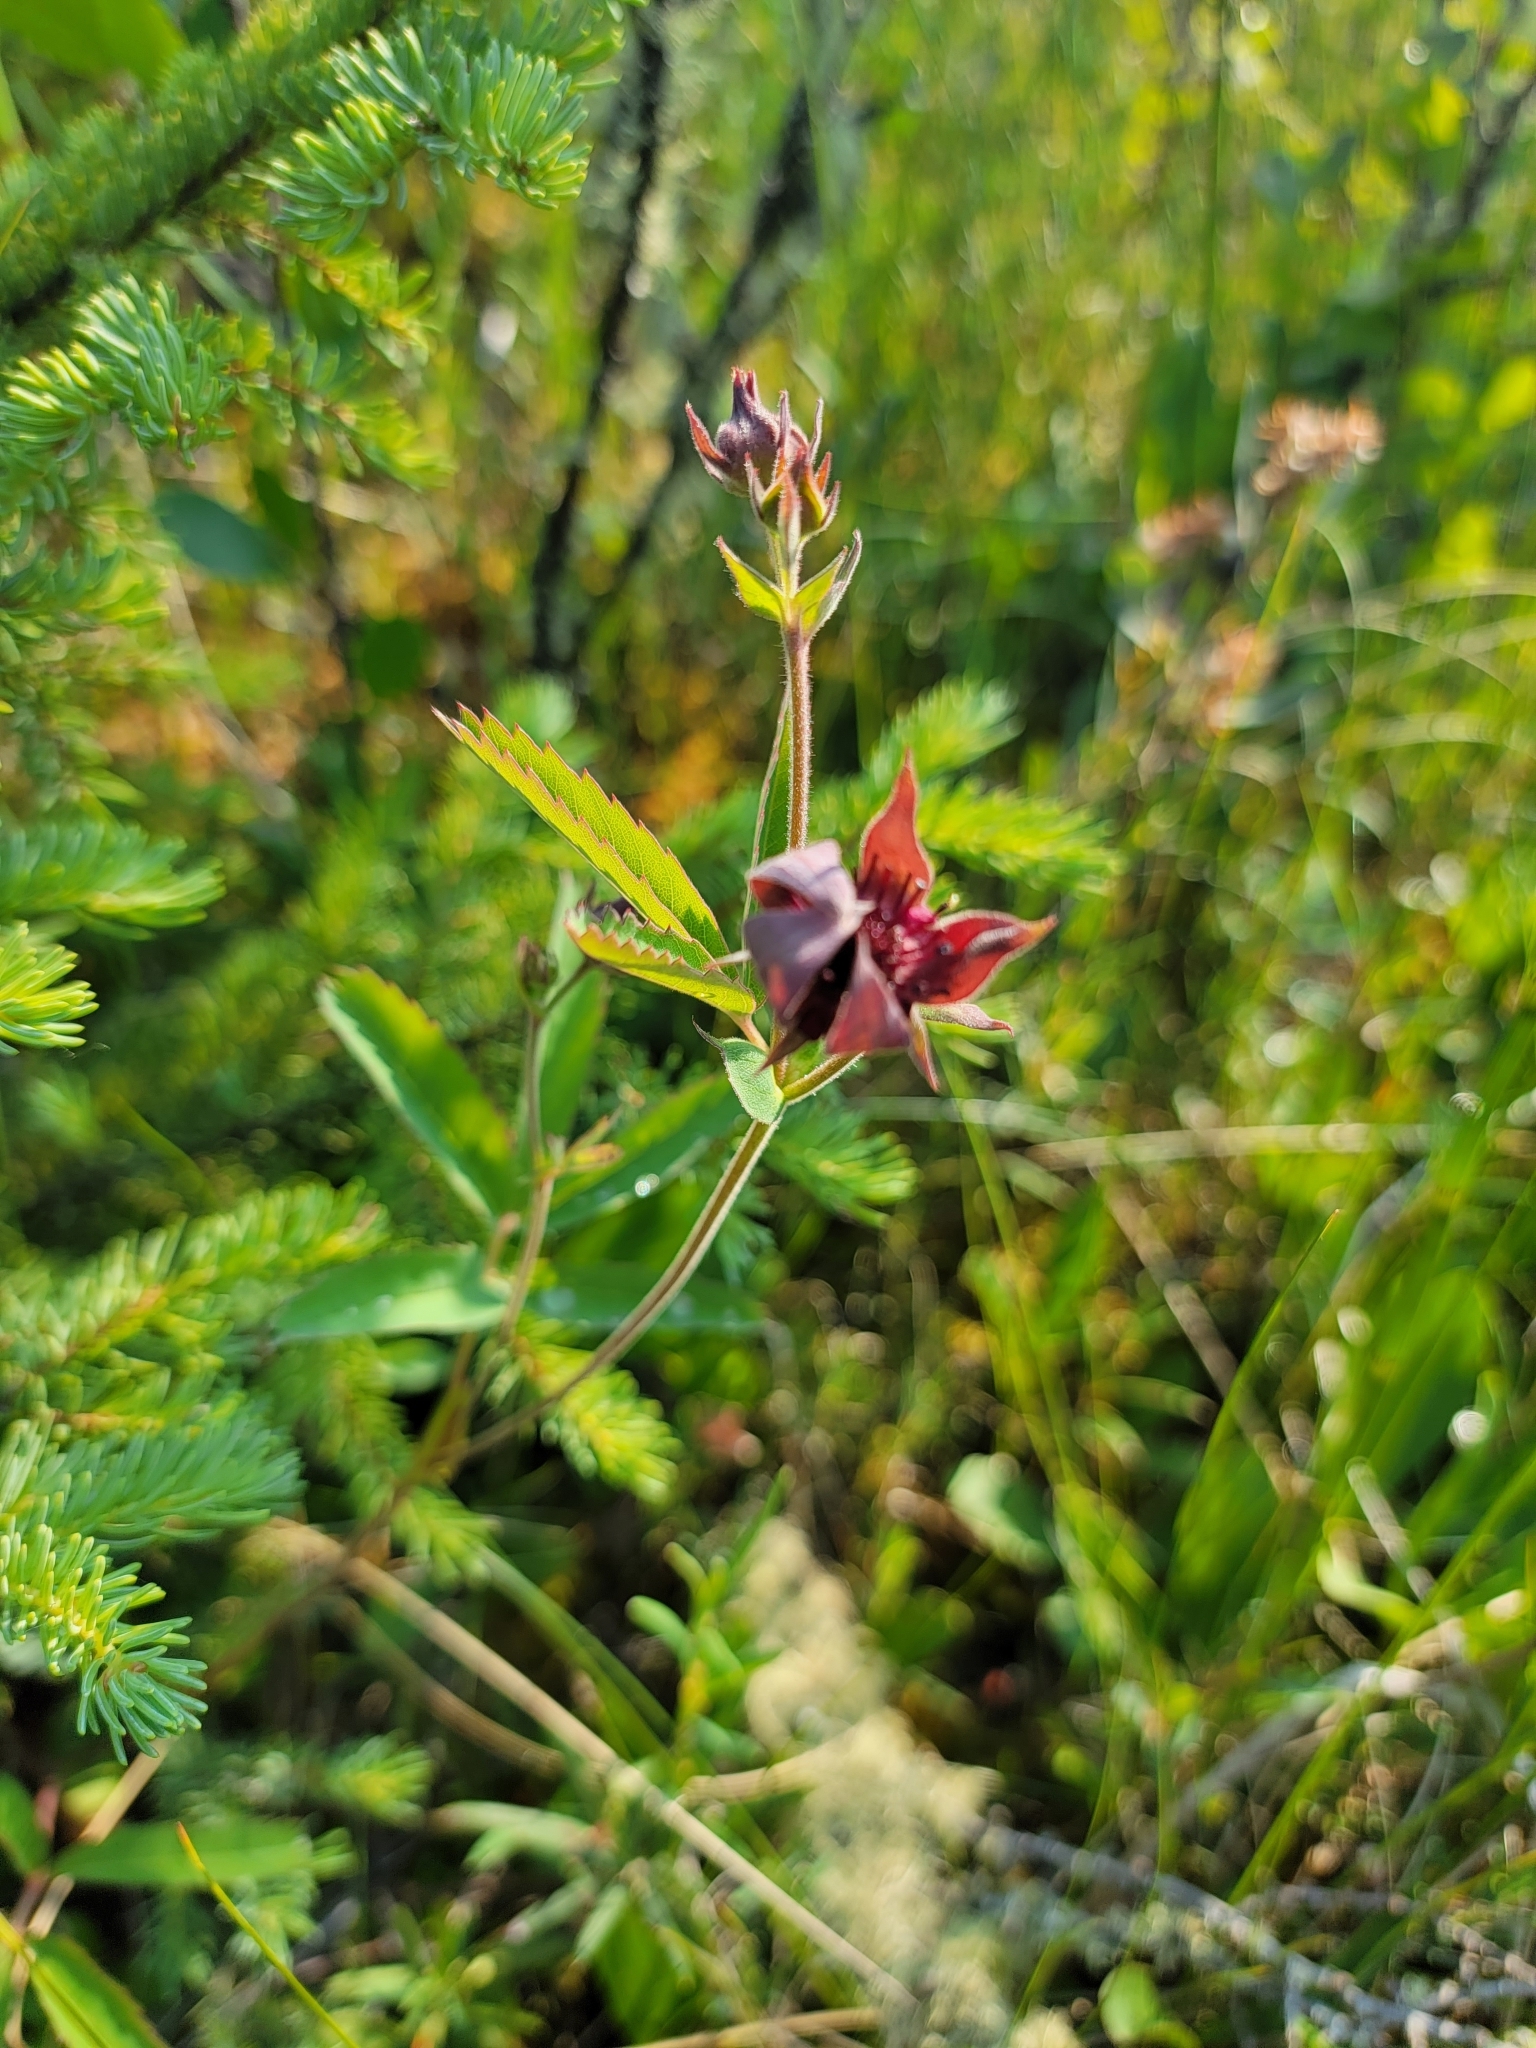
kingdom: Plantae
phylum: Tracheophyta
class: Magnoliopsida
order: Rosales
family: Rosaceae
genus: Comarum
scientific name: Comarum palustre
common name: Marsh cinquefoil
